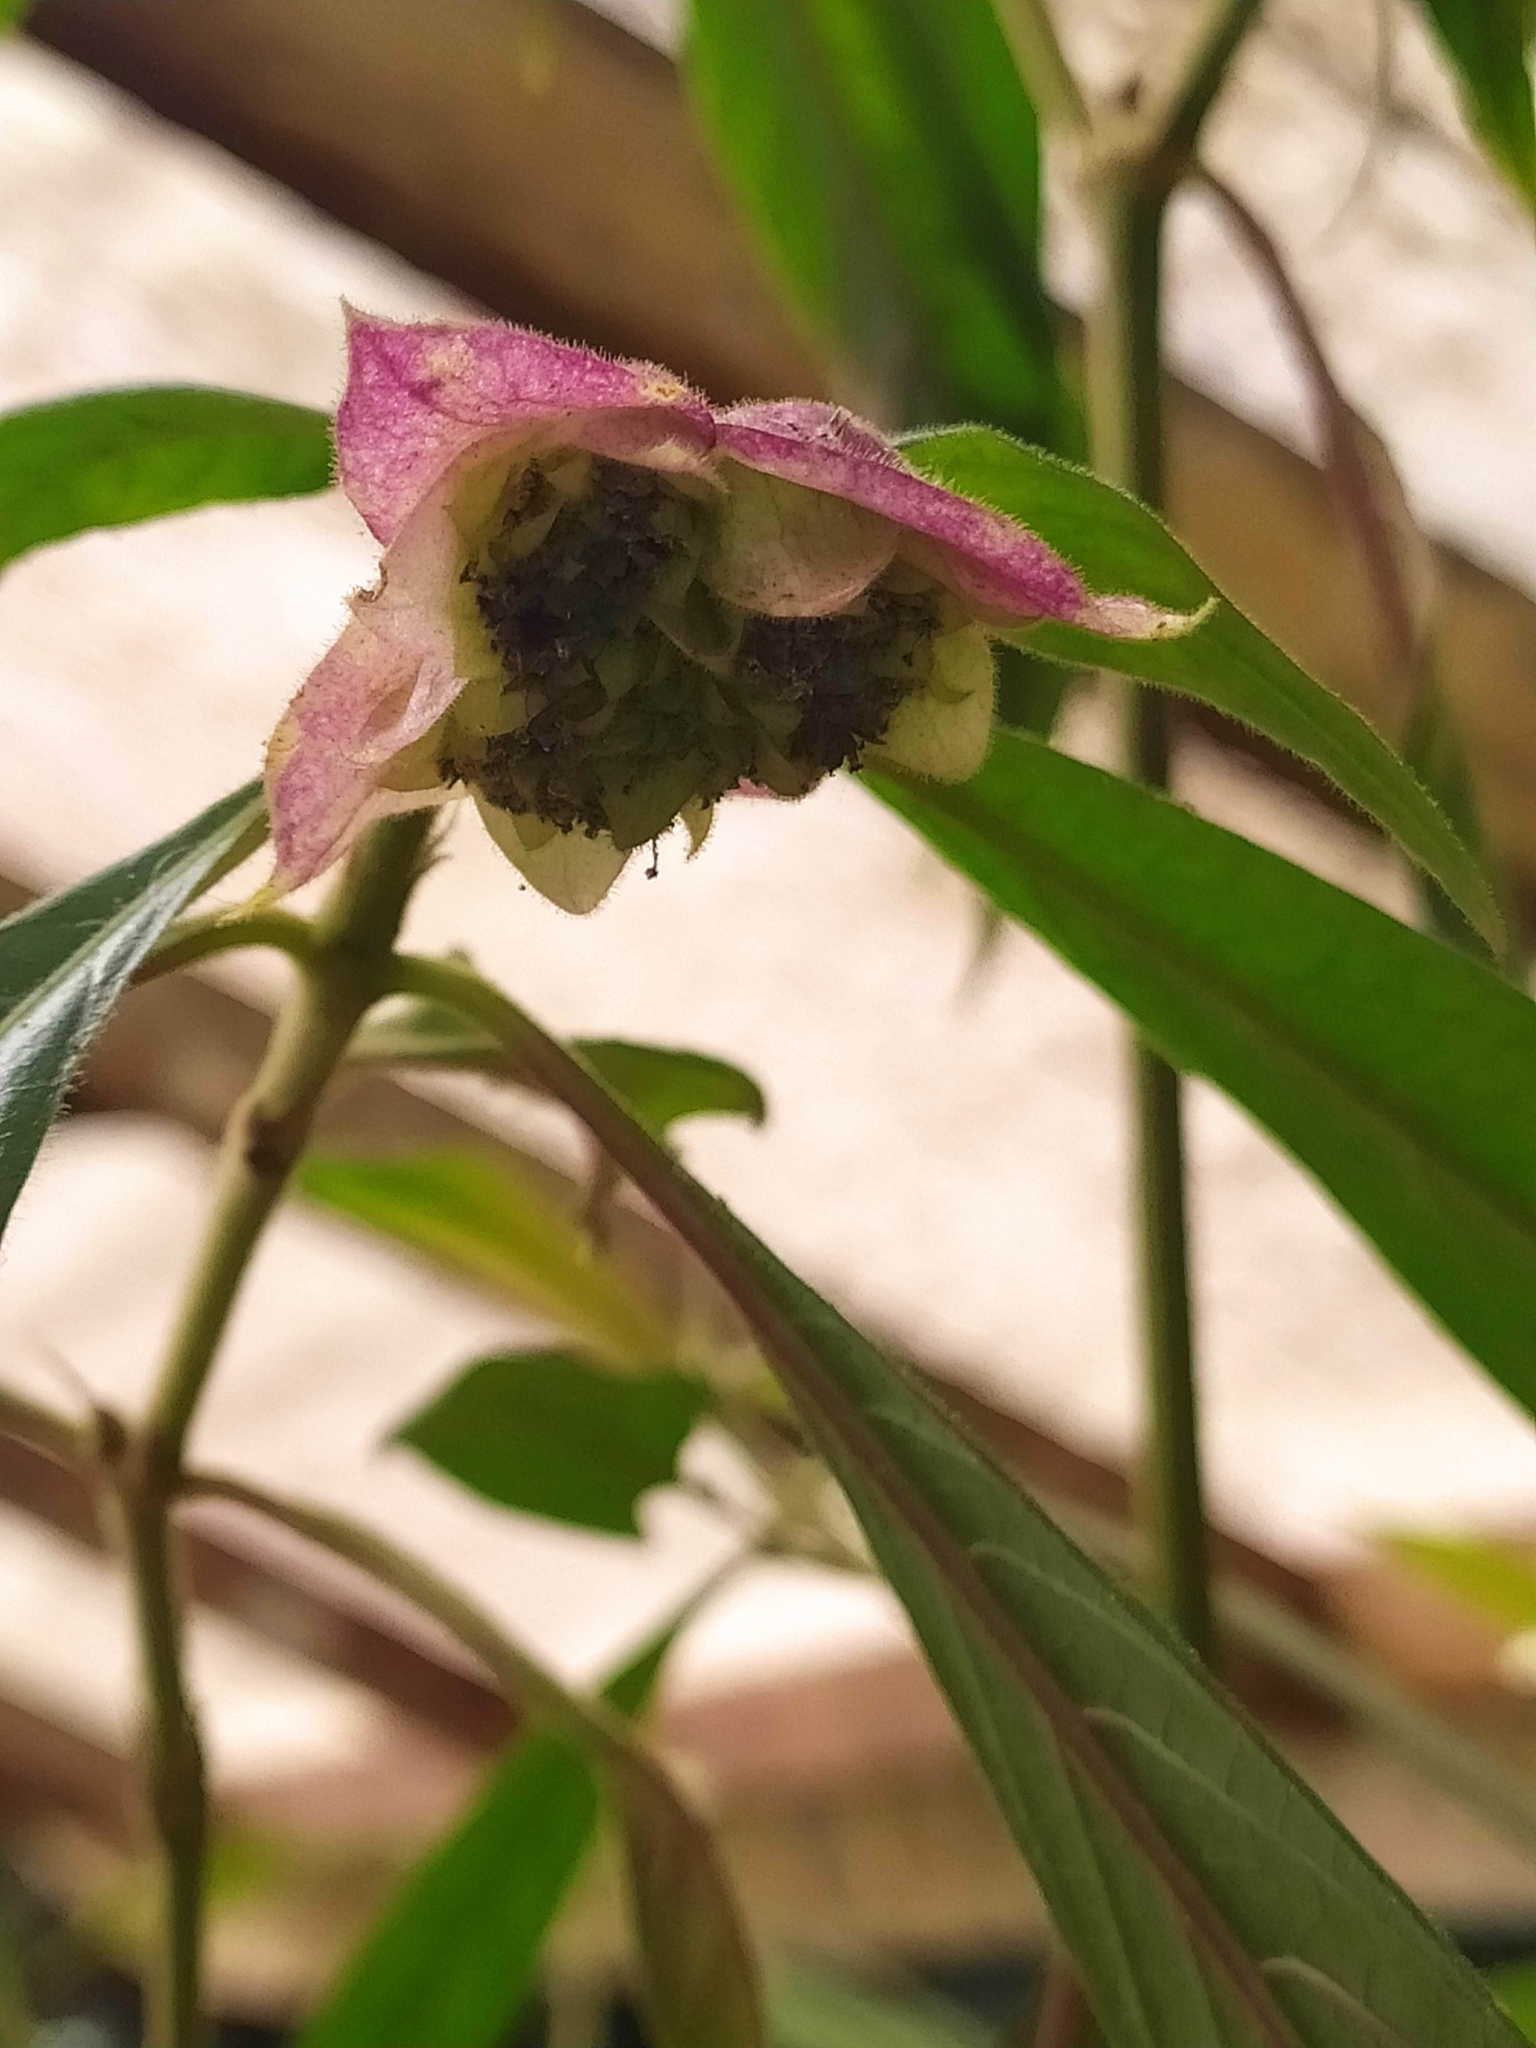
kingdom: Plantae
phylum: Tracheophyta
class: Magnoliopsida
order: Gentianales
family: Rubiaceae
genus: Palicourea
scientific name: Palicourea bracteocardia
